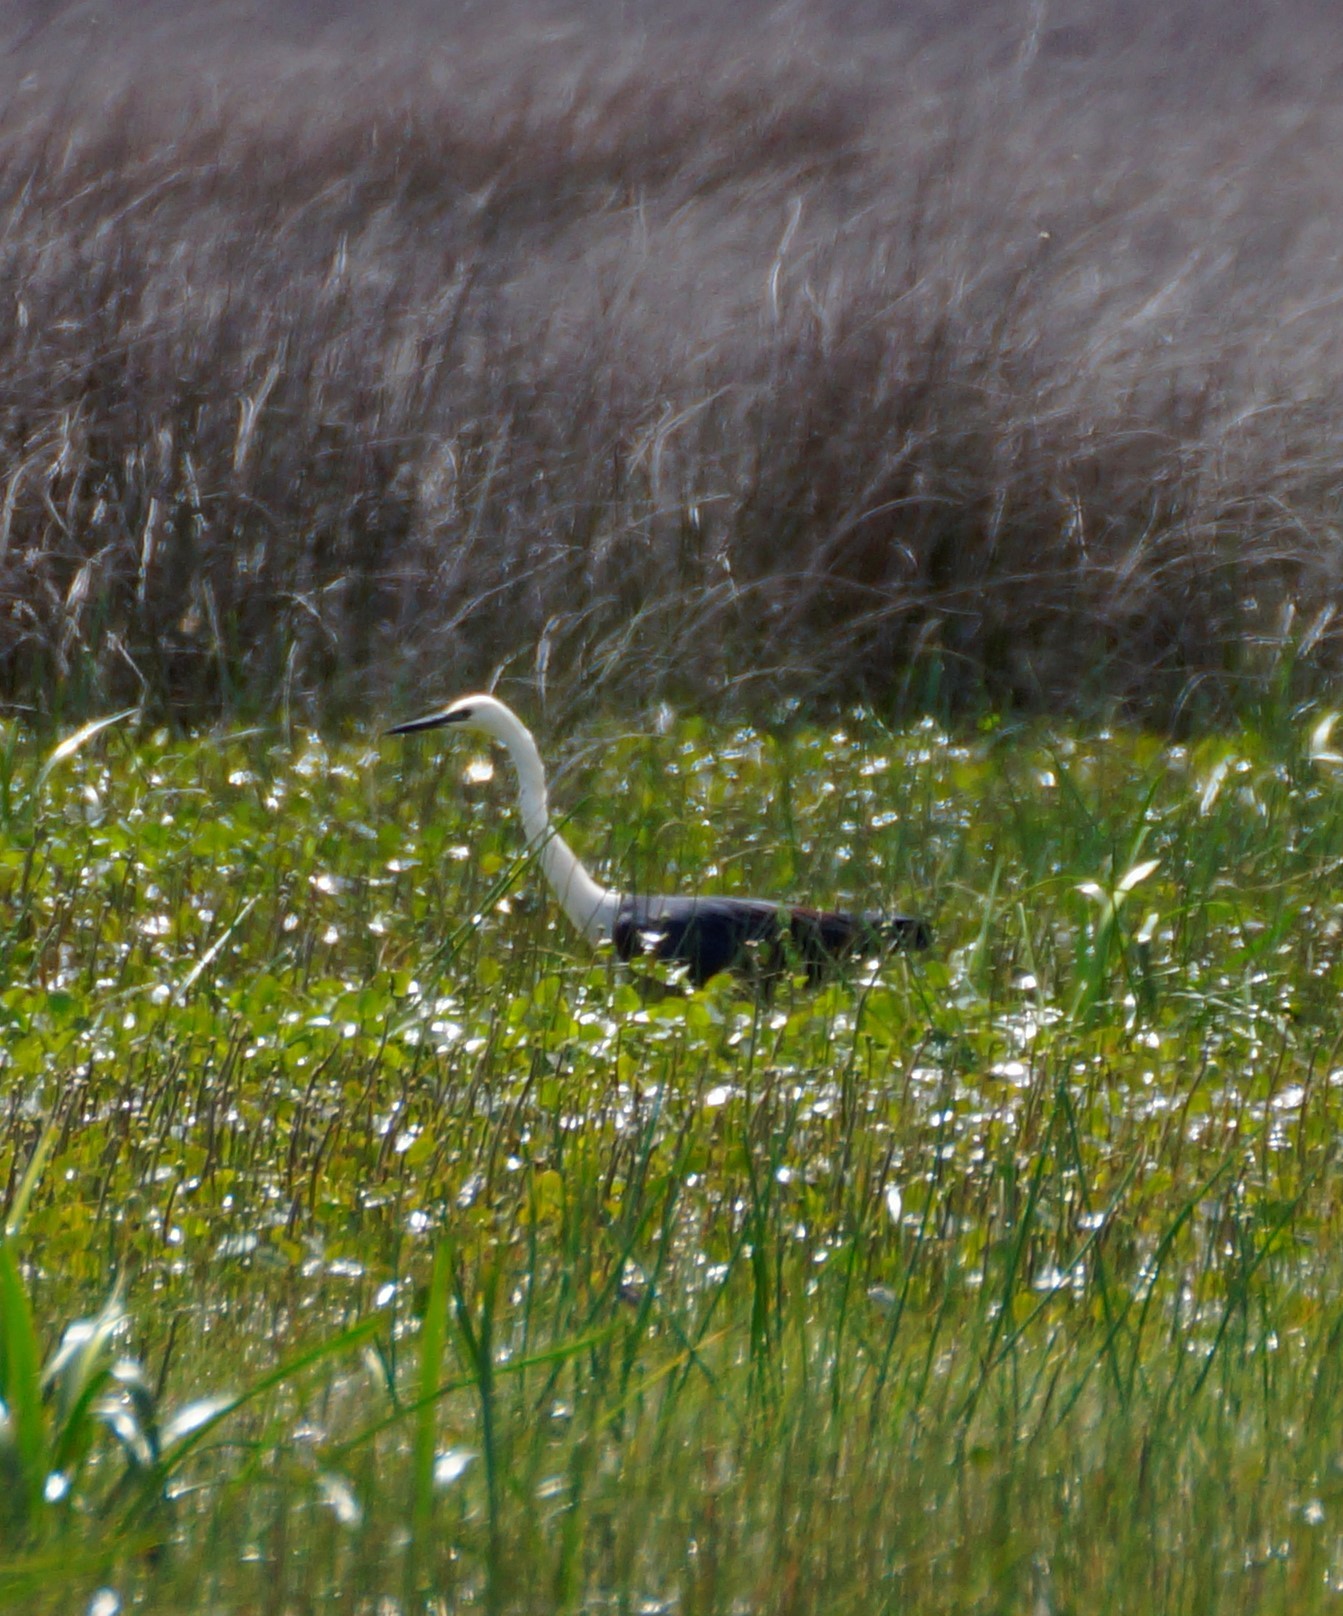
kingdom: Animalia
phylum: Chordata
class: Aves
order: Pelecaniformes
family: Ardeidae
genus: Ardea
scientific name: Ardea pacifica
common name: White-necked heron
